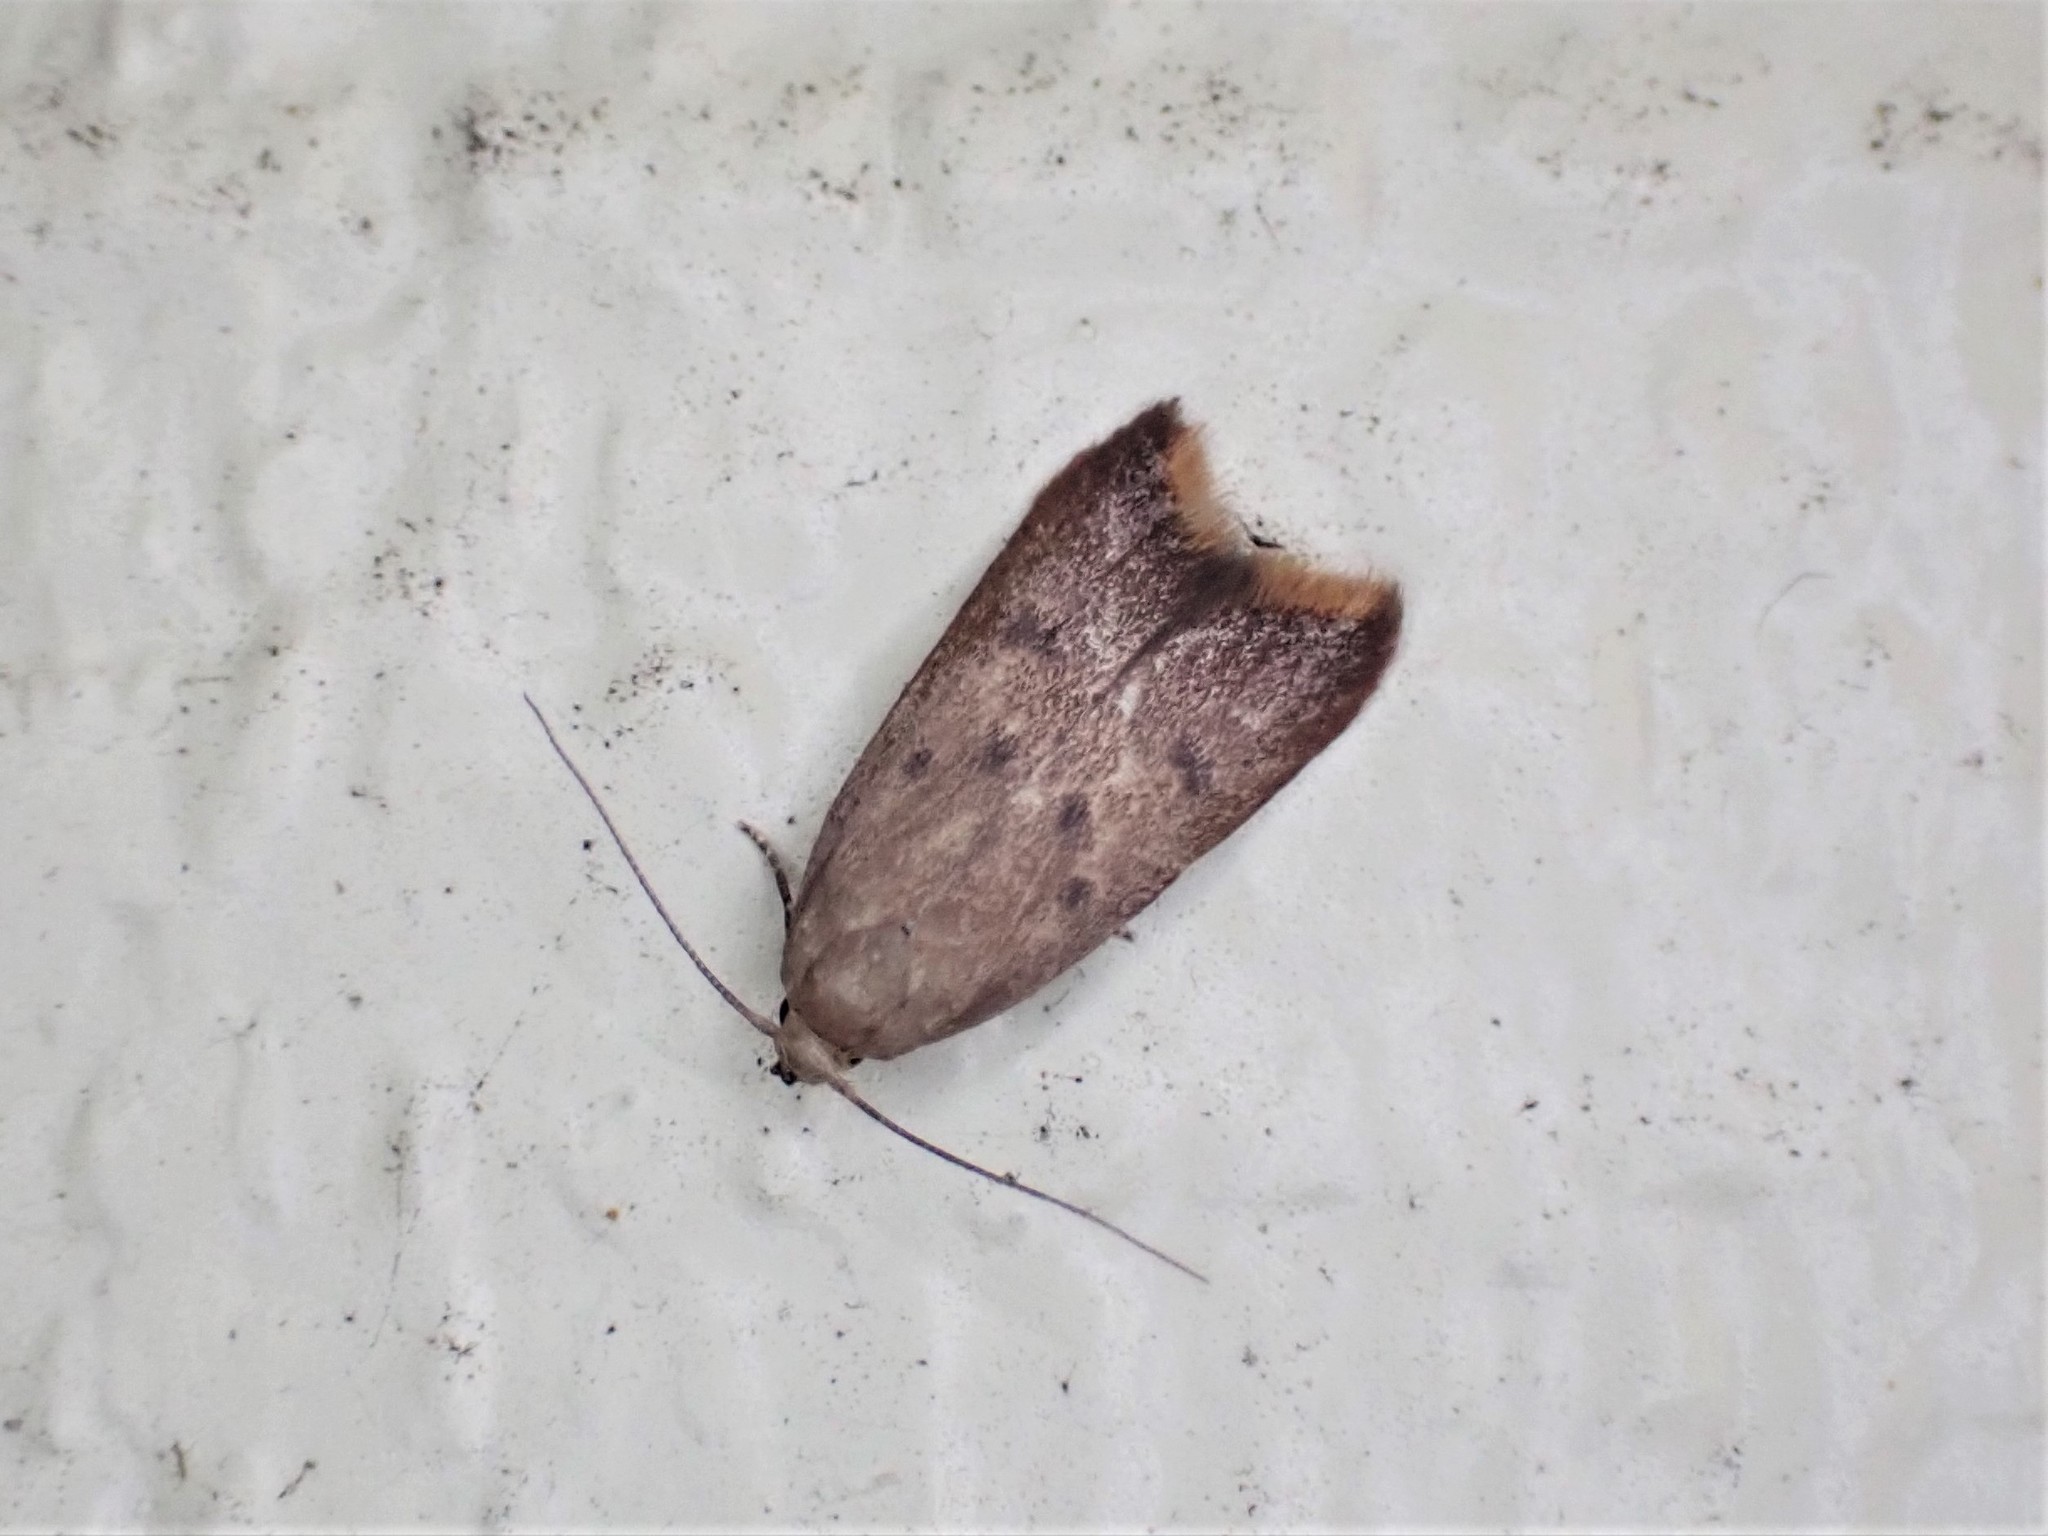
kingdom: Animalia
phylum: Arthropoda
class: Insecta
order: Lepidoptera
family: Oecophoridae
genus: Tachystola
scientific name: Tachystola acroxantha
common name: Ruddy streak
